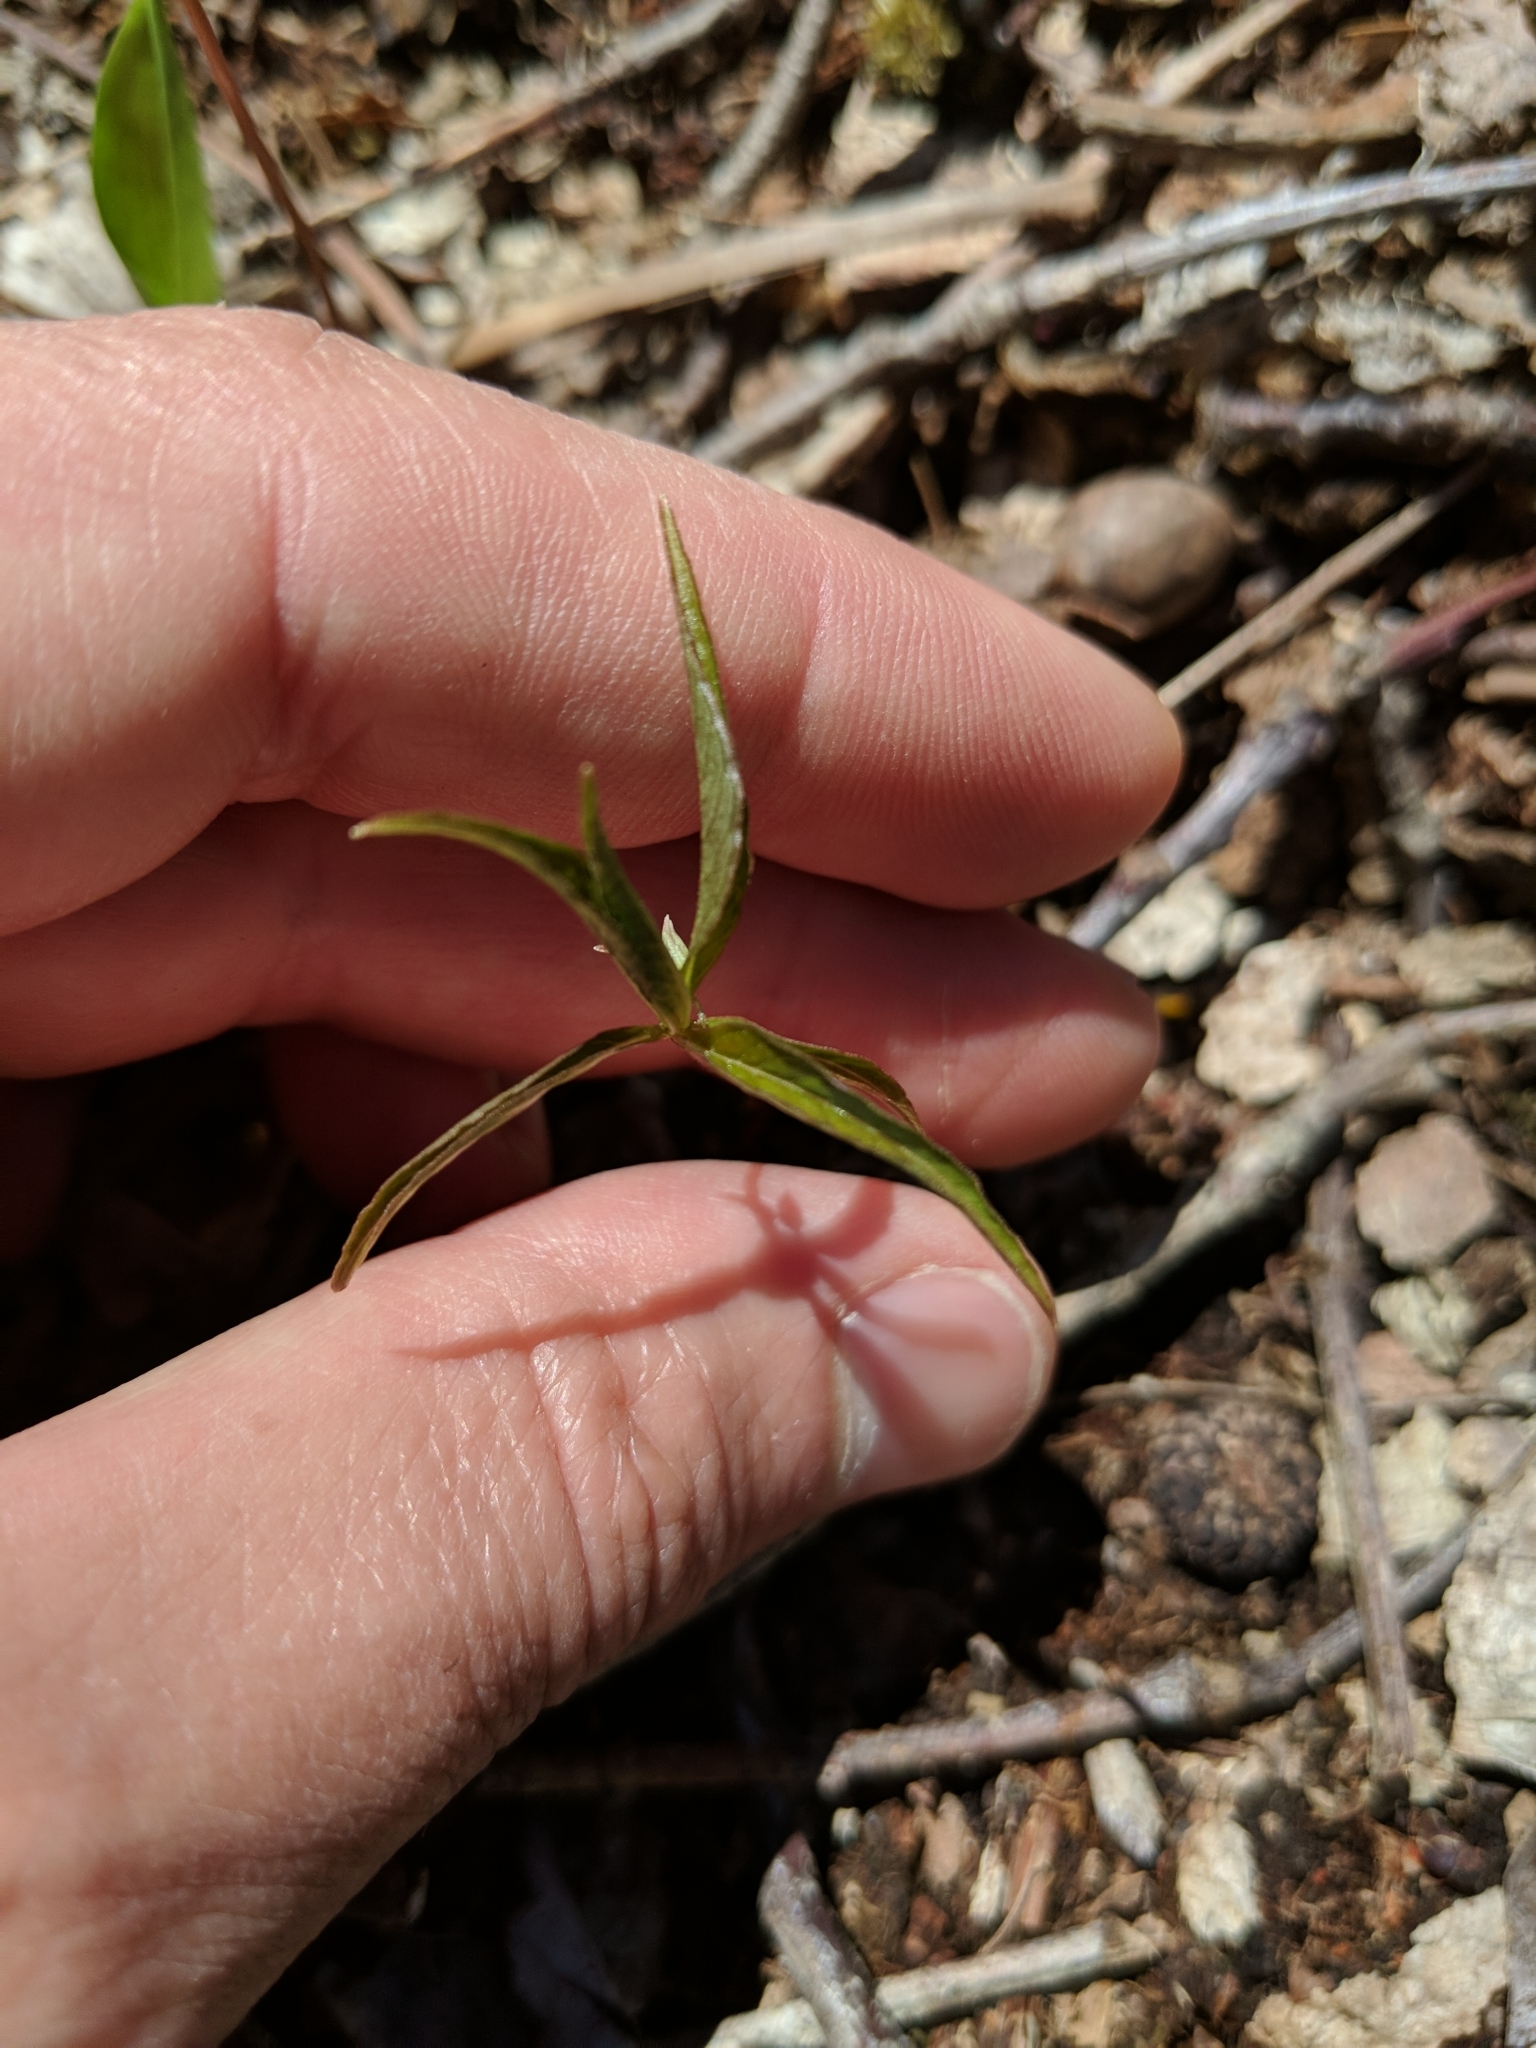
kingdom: Plantae
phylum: Tracheophyta
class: Magnoliopsida
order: Ericales
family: Primulaceae
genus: Lysimachia
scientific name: Lysimachia borealis
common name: American starflower
